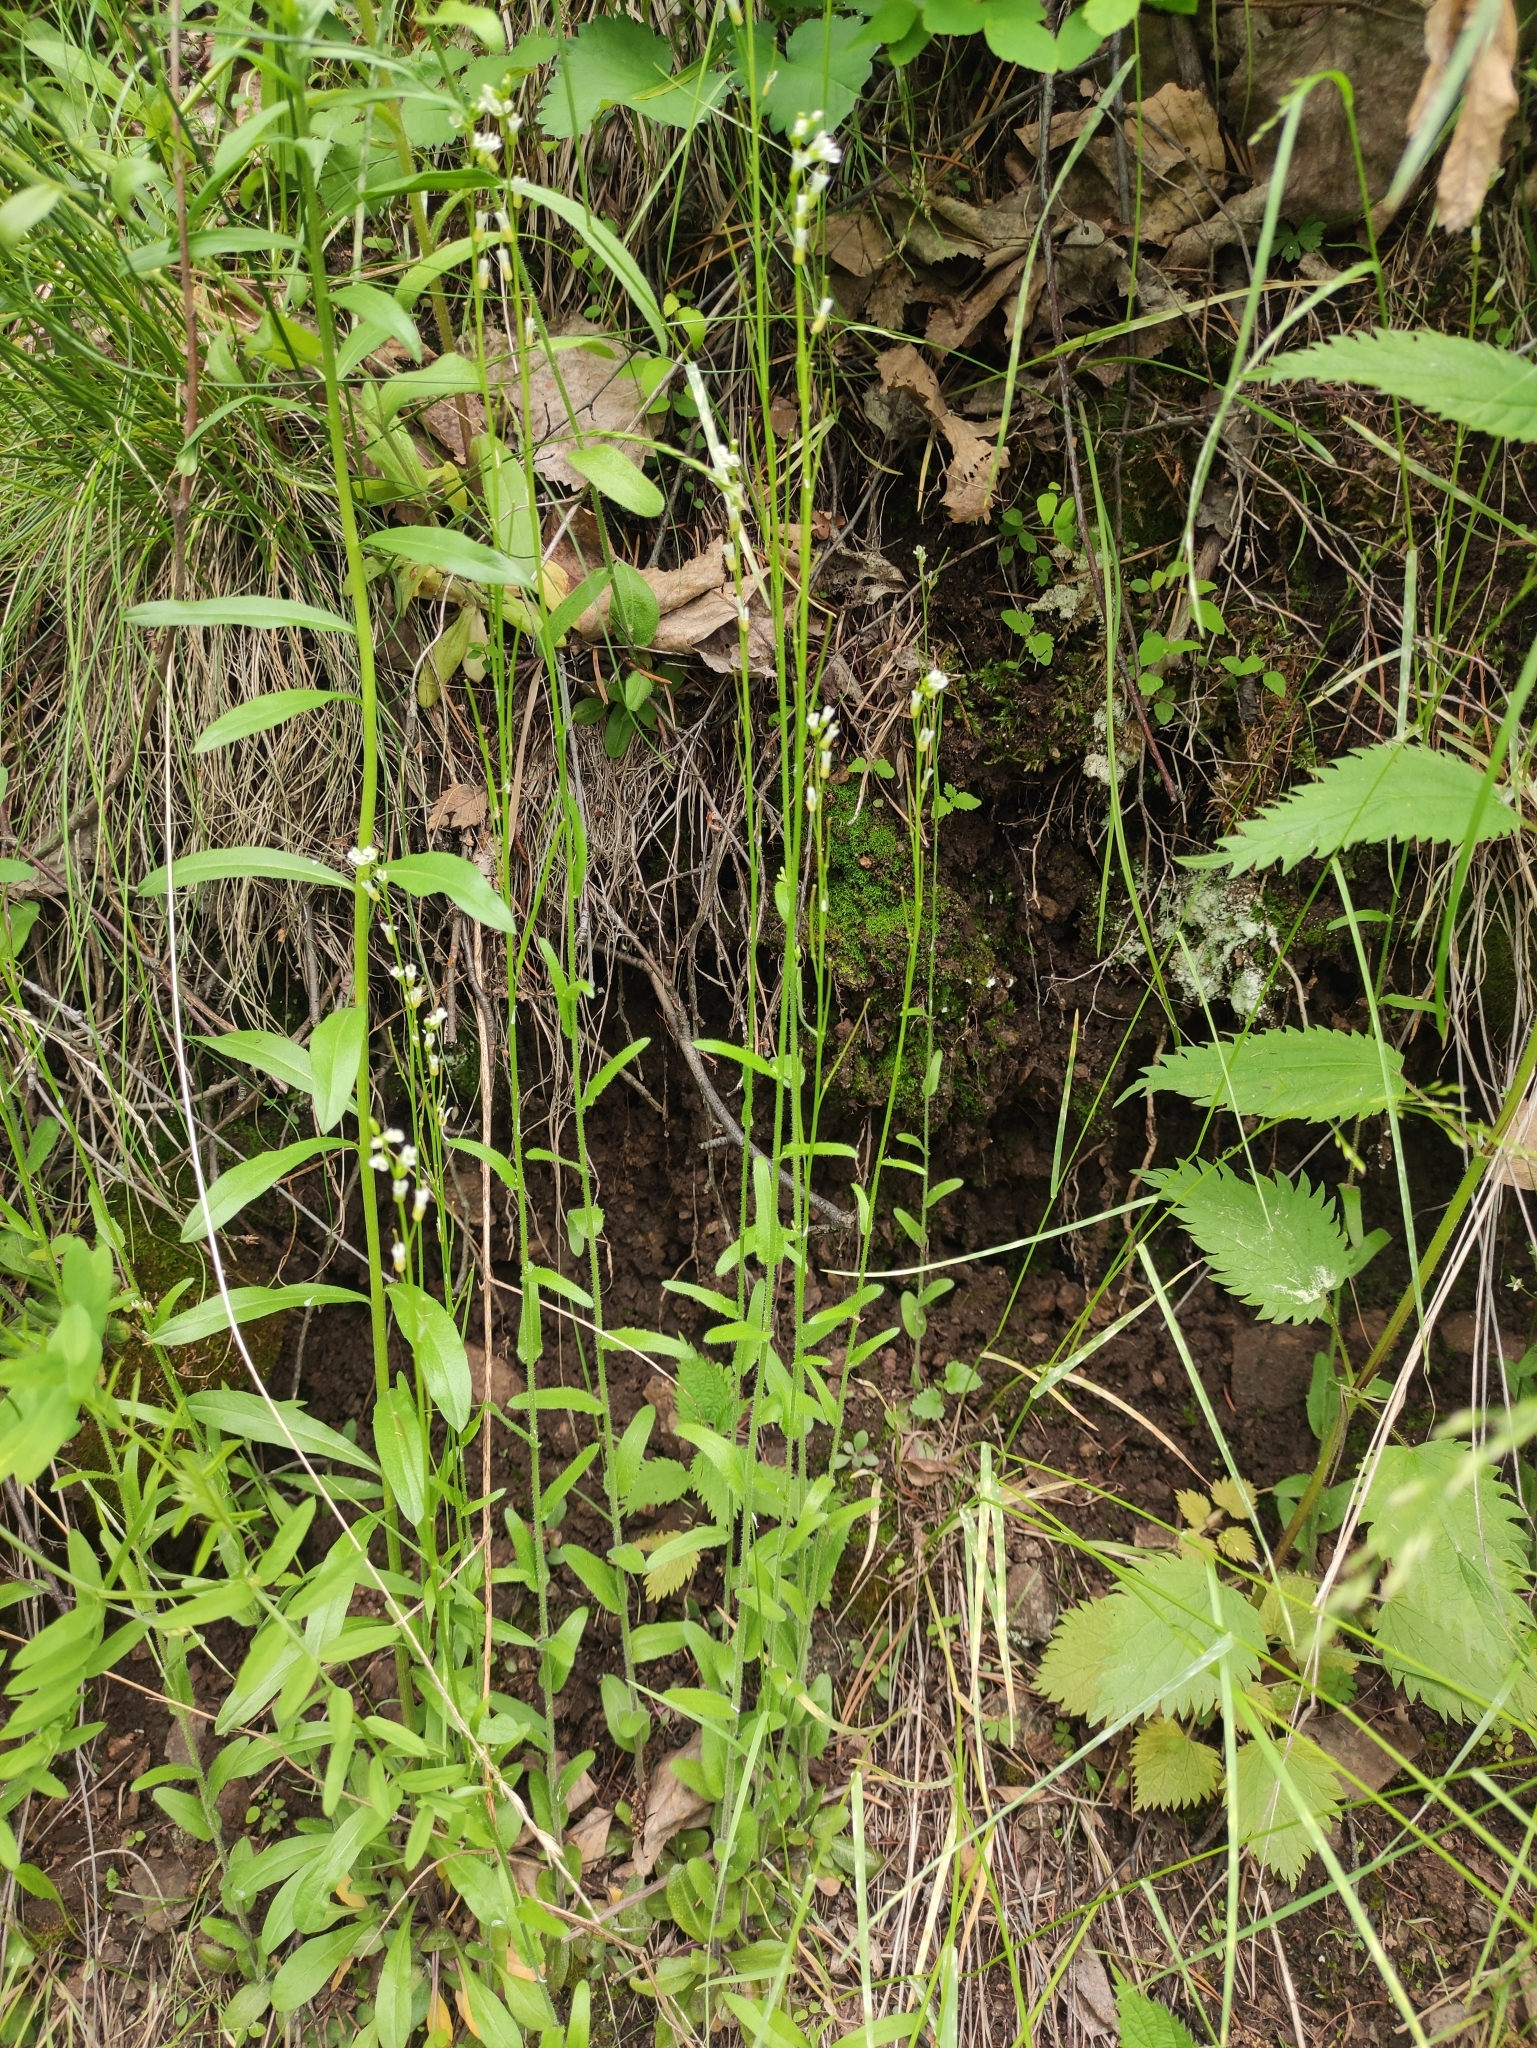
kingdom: Plantae
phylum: Tracheophyta
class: Magnoliopsida
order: Brassicales
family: Brassicaceae
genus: Arabis
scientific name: Arabis borealis
